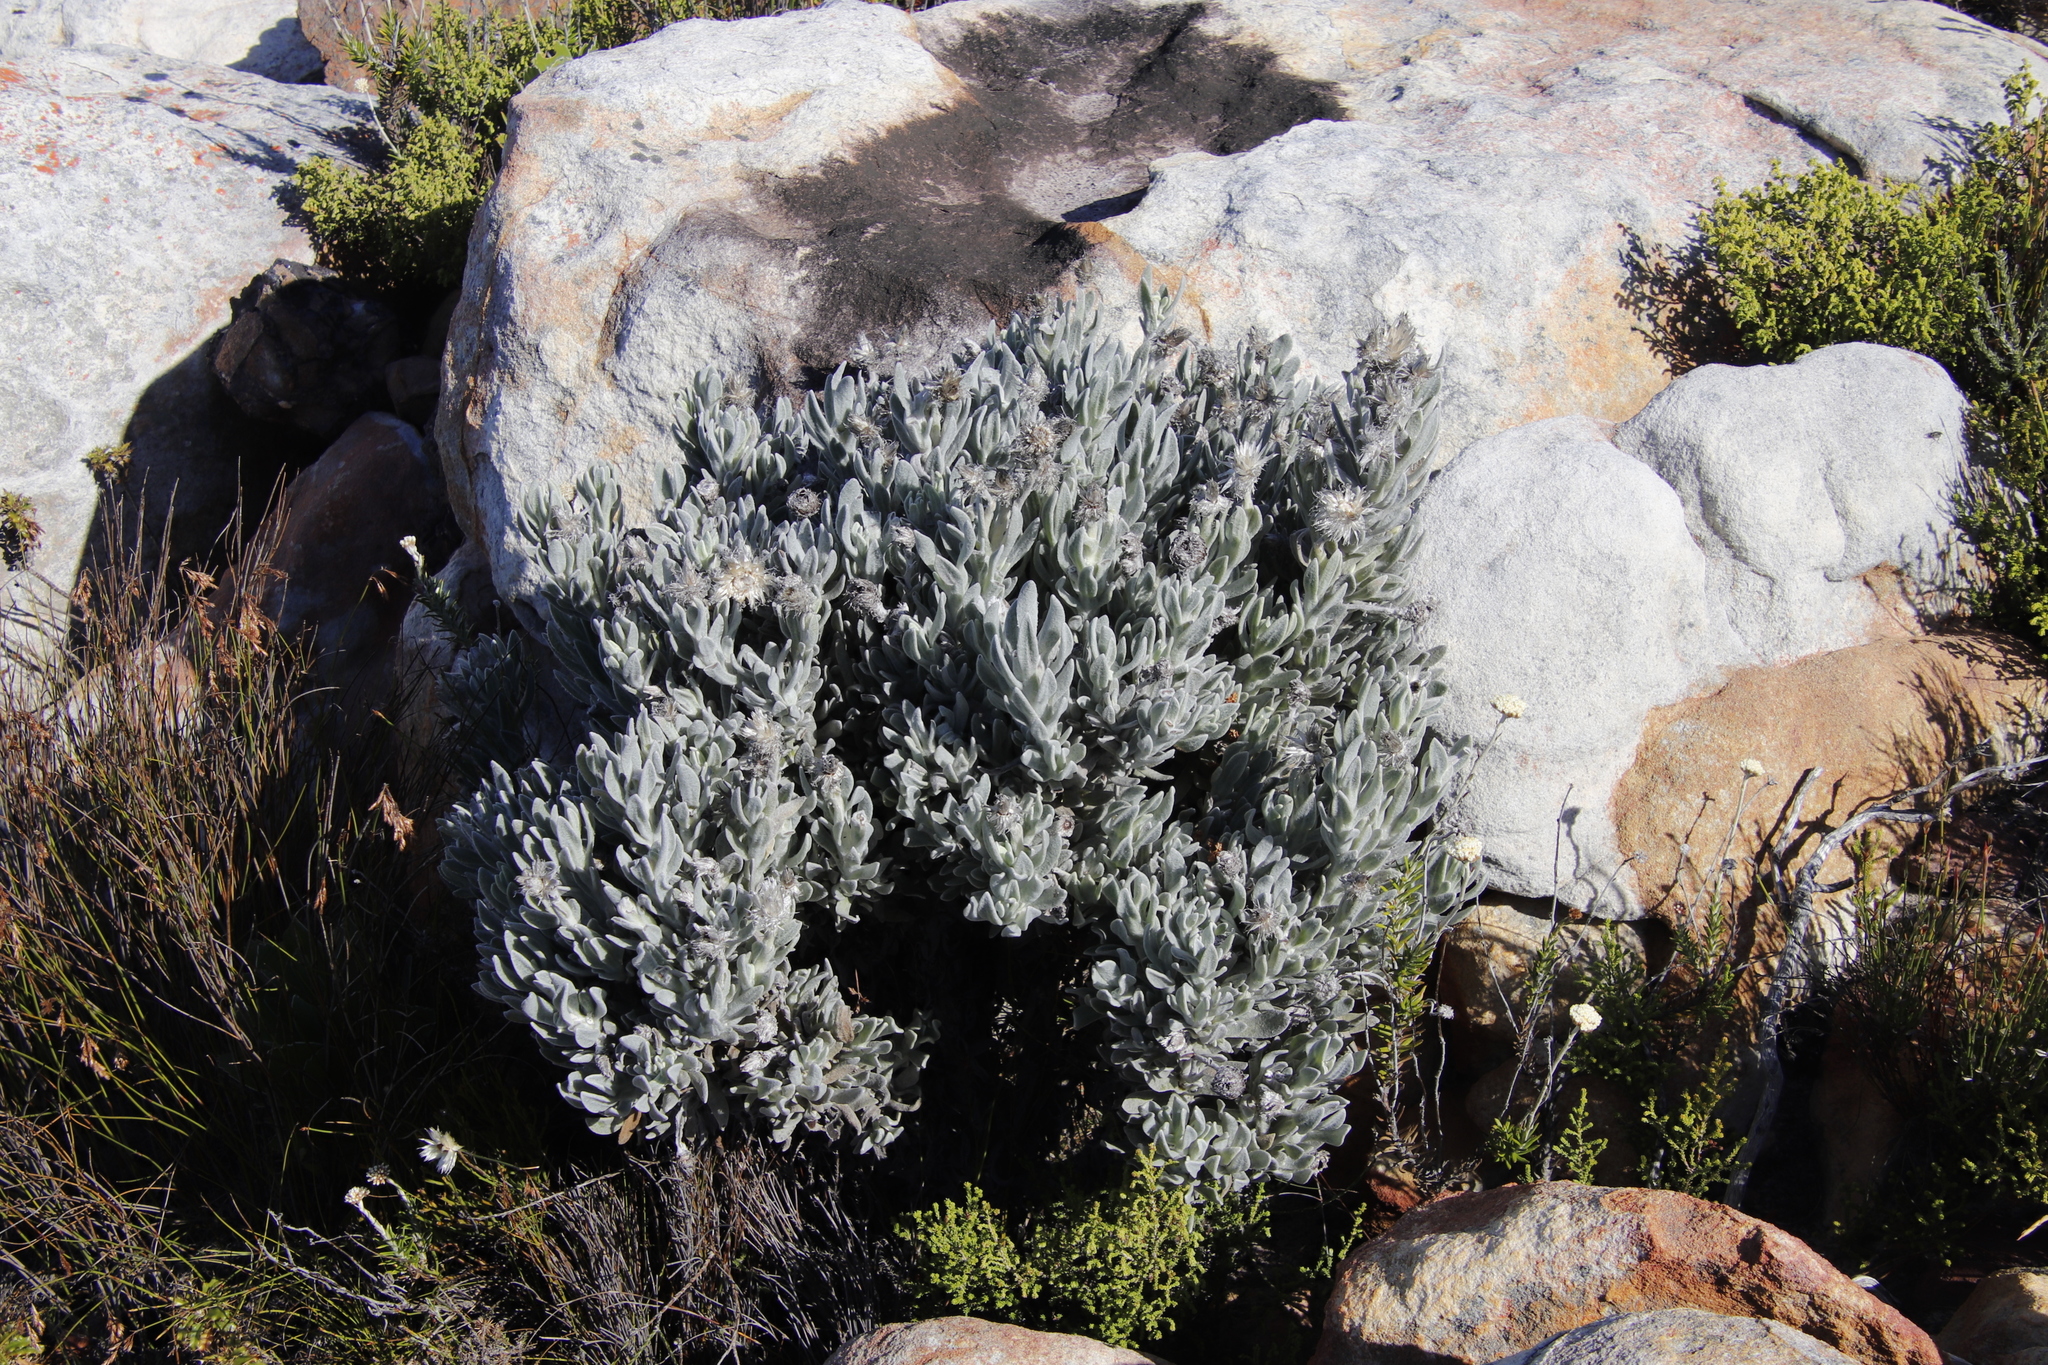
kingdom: Plantae
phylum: Tracheophyta
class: Magnoliopsida
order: Asterales
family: Asteraceae
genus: Syncarpha
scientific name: Syncarpha vestita
